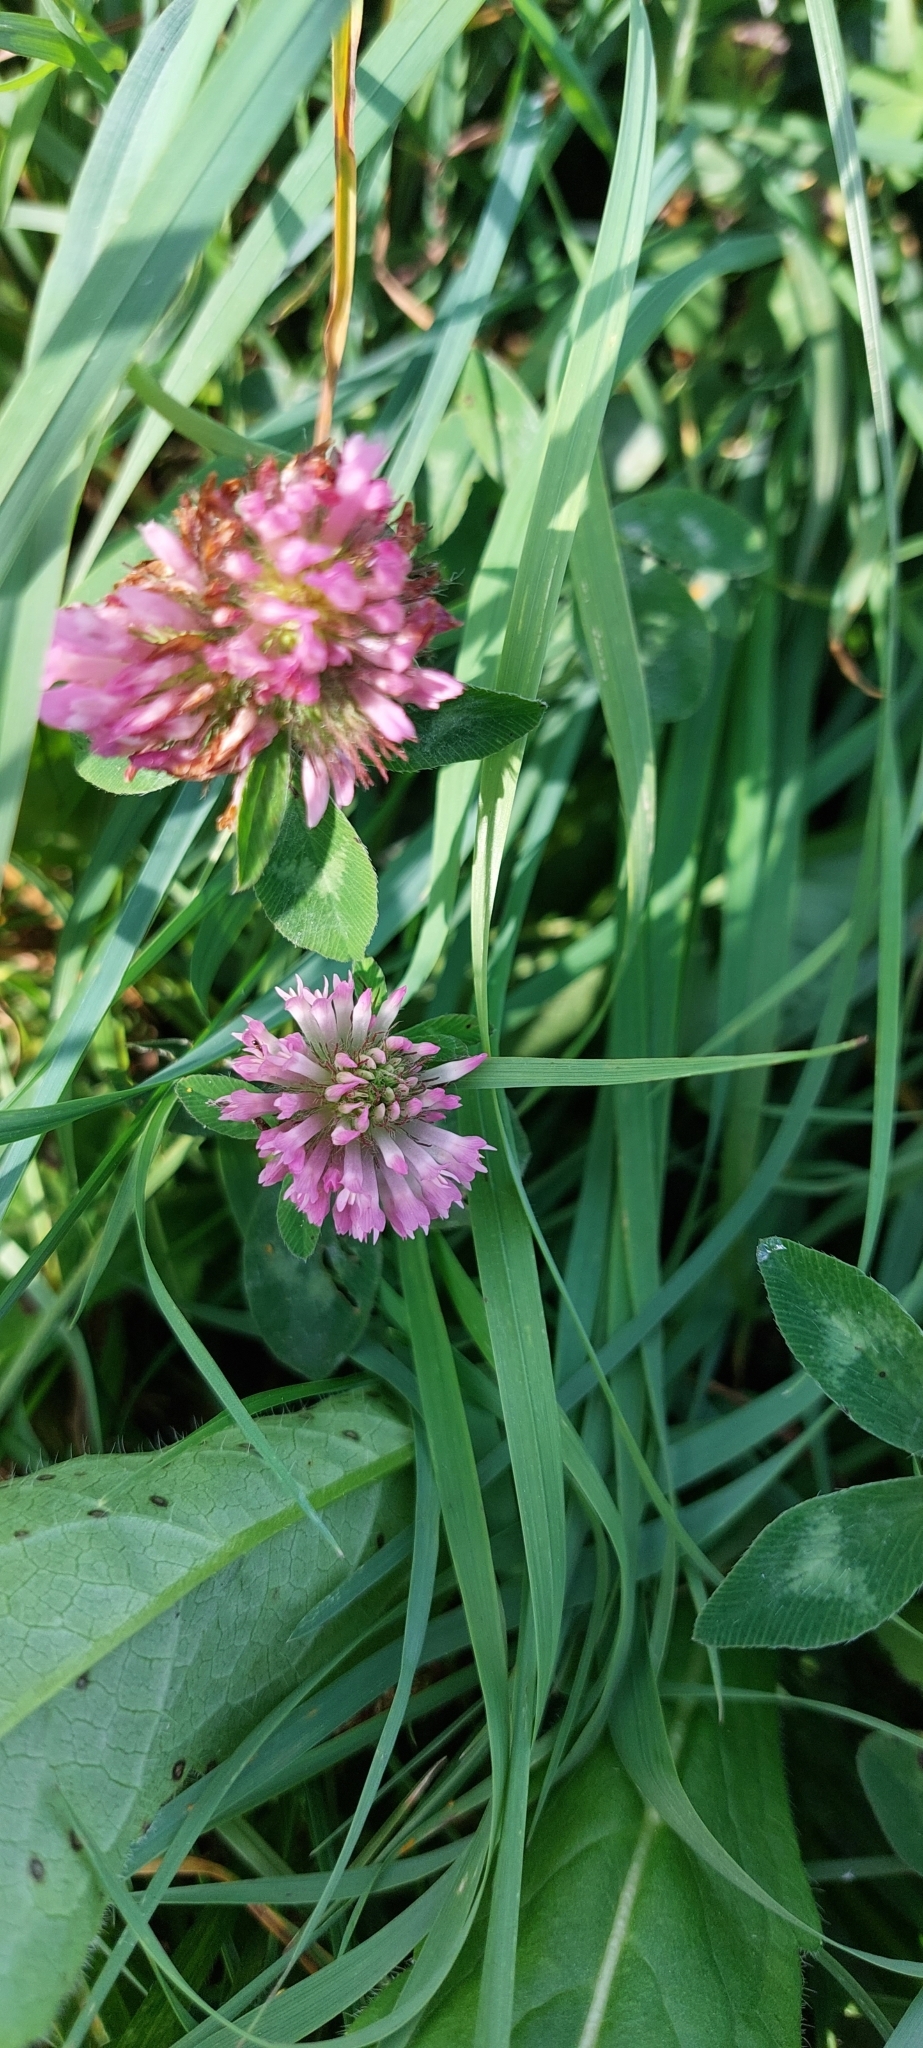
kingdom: Plantae
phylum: Tracheophyta
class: Magnoliopsida
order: Fabales
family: Fabaceae
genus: Trifolium
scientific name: Trifolium pratense
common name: Red clover
